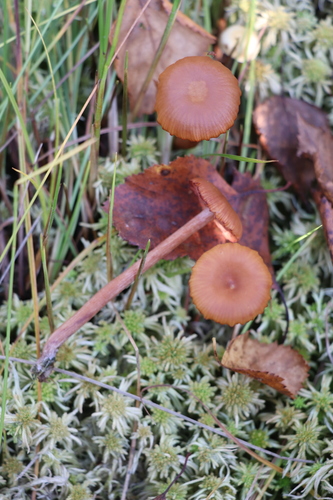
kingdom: Fungi
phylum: Basidiomycota
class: Agaricomycetes
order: Agaricales
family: Hydnangiaceae
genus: Laccaria
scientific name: Laccaria laccata
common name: Deceiver
